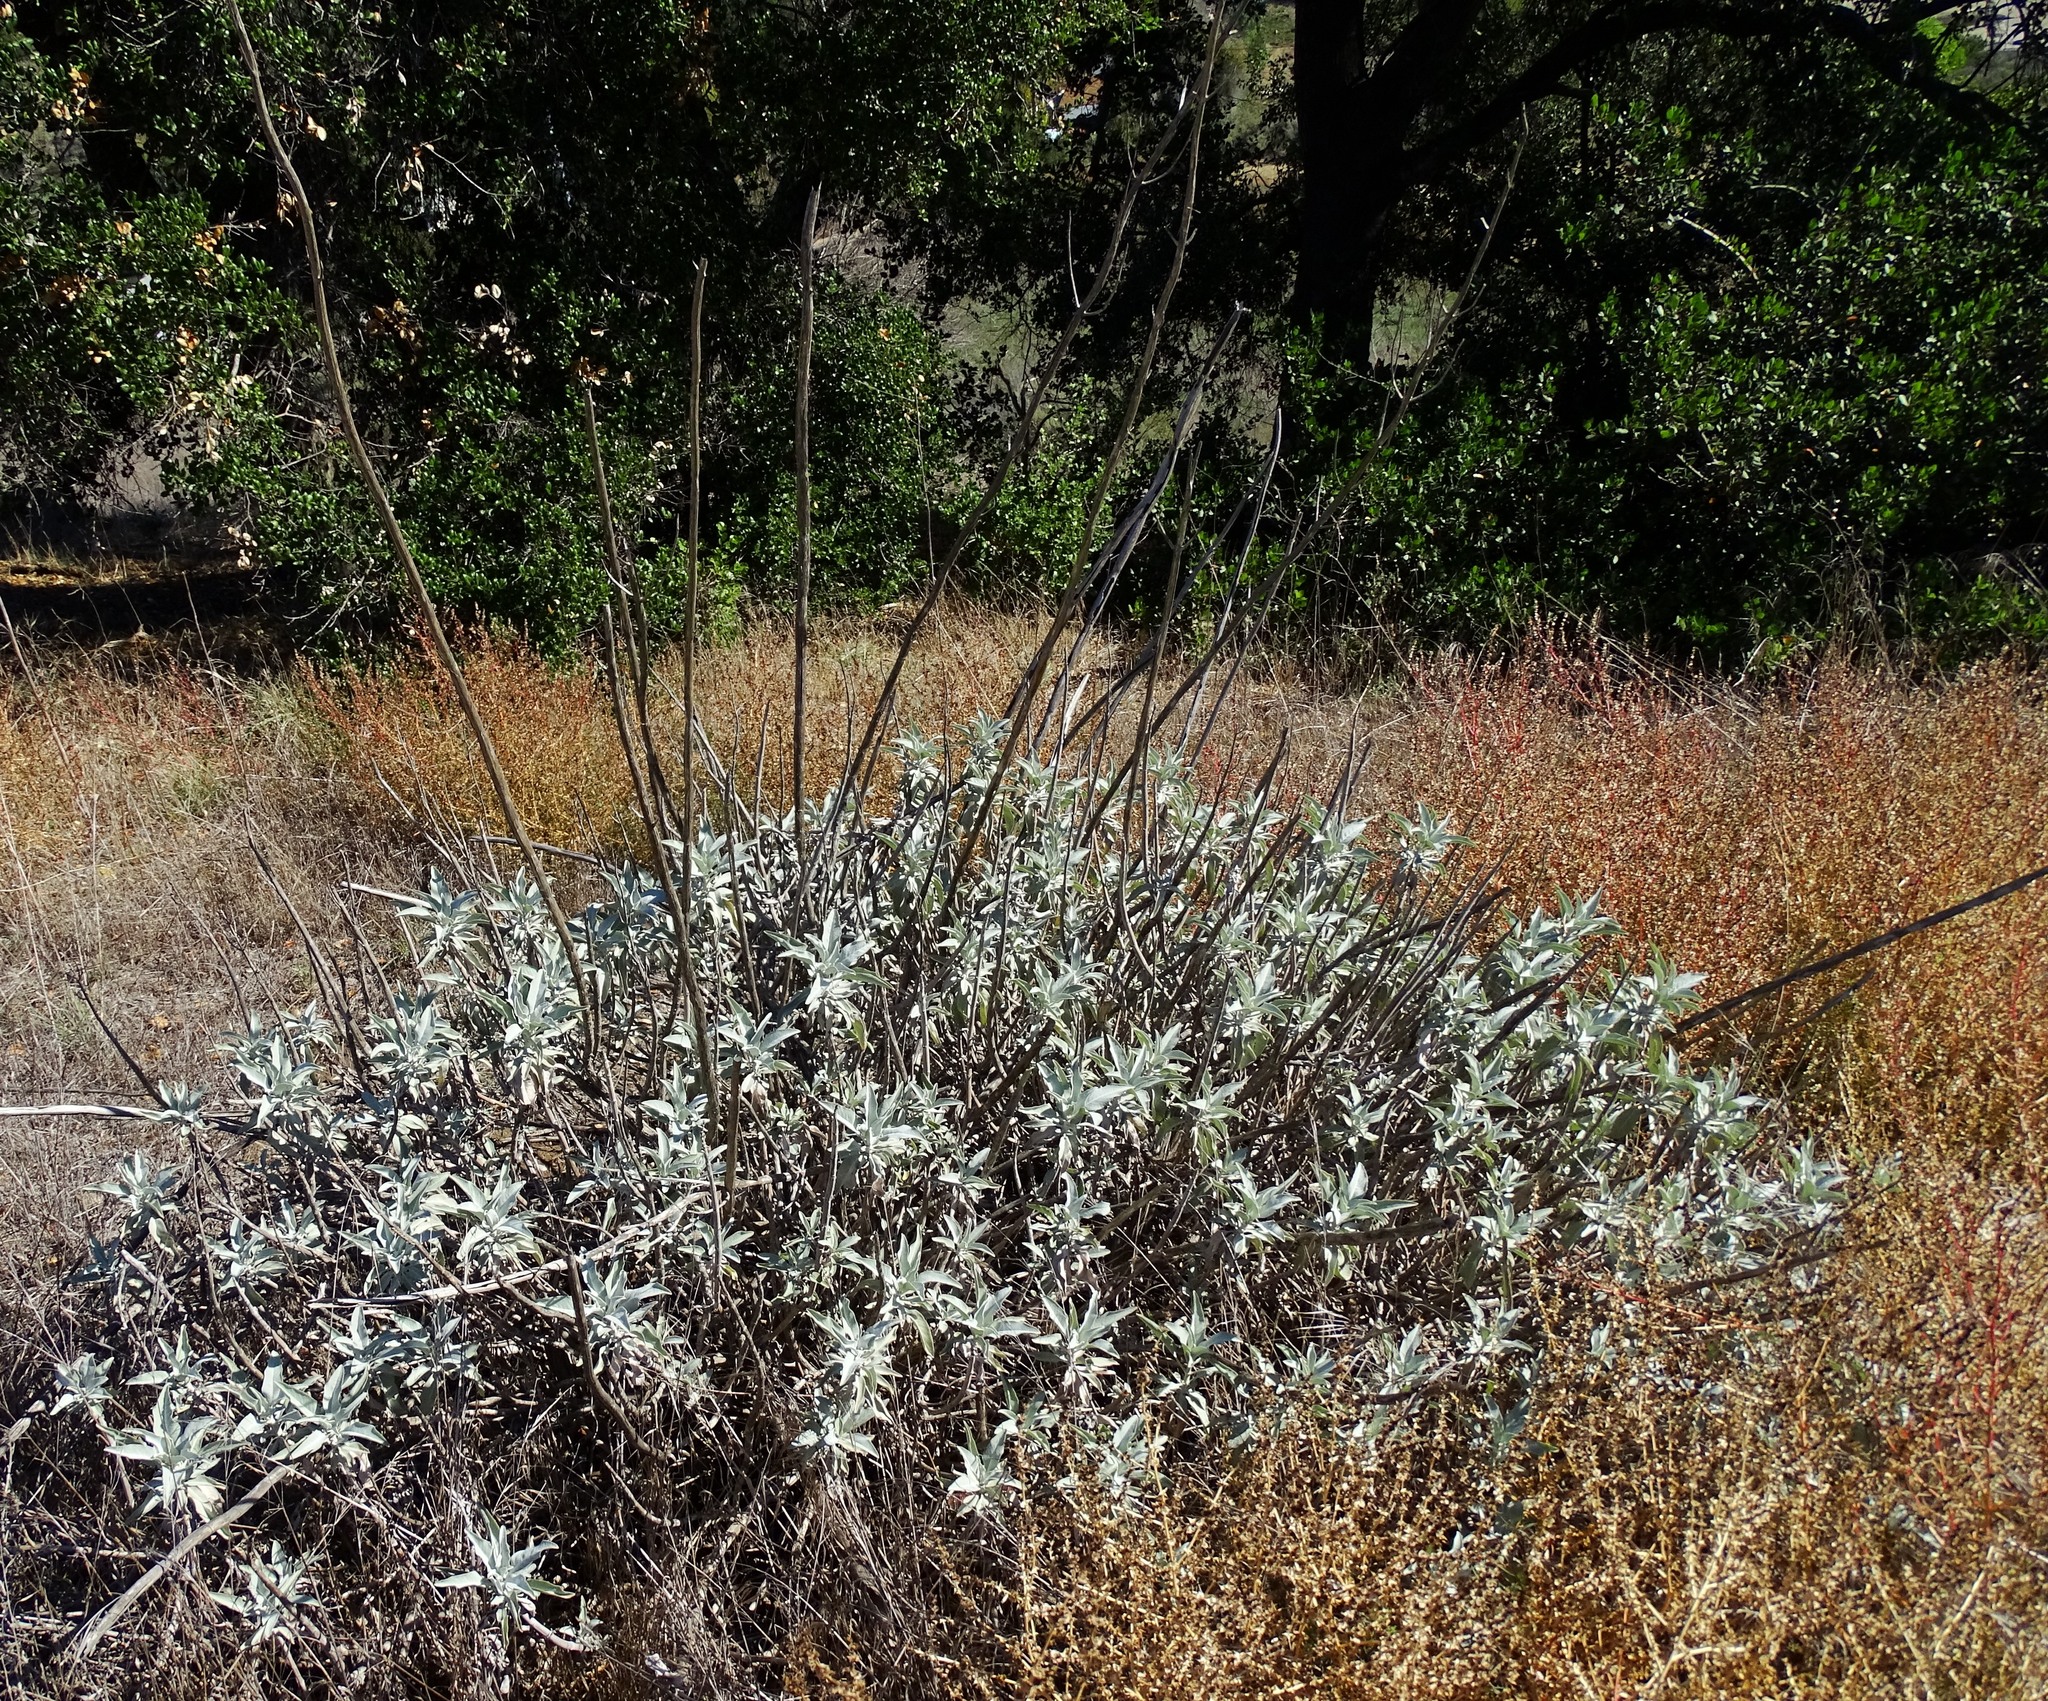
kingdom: Plantae
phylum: Tracheophyta
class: Magnoliopsida
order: Lamiales
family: Lamiaceae
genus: Salvia
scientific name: Salvia apiana
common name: White sage
